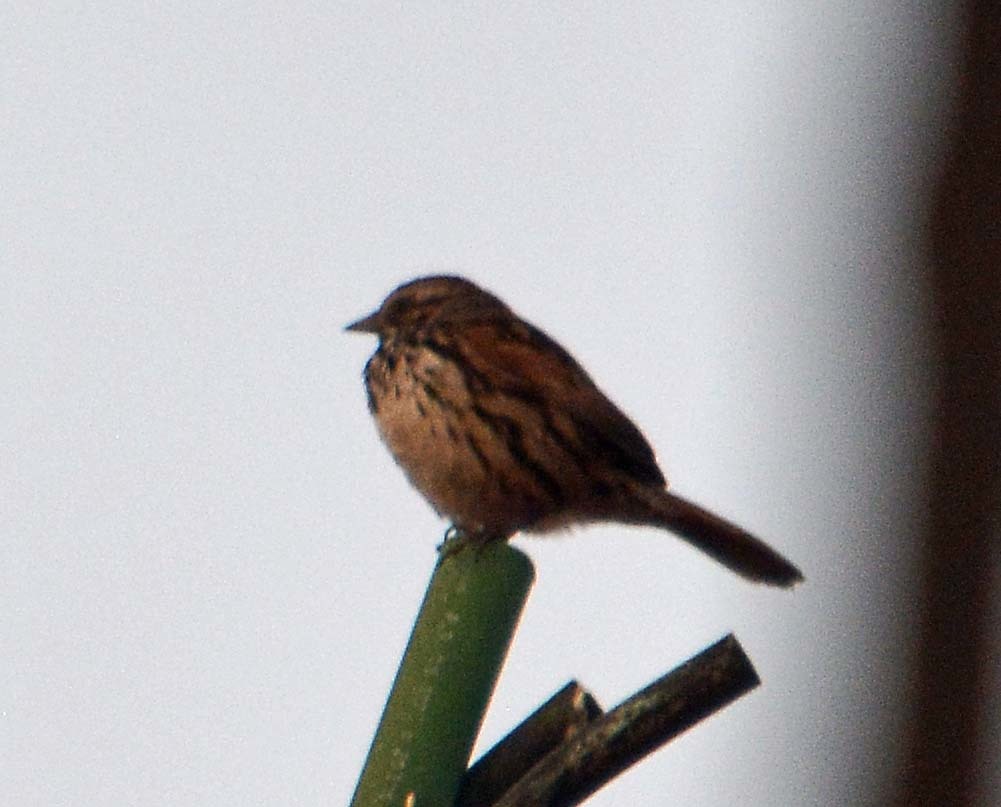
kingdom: Animalia
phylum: Chordata
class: Aves
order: Passeriformes
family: Passerellidae
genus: Melospiza
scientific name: Melospiza melodia
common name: Song sparrow
